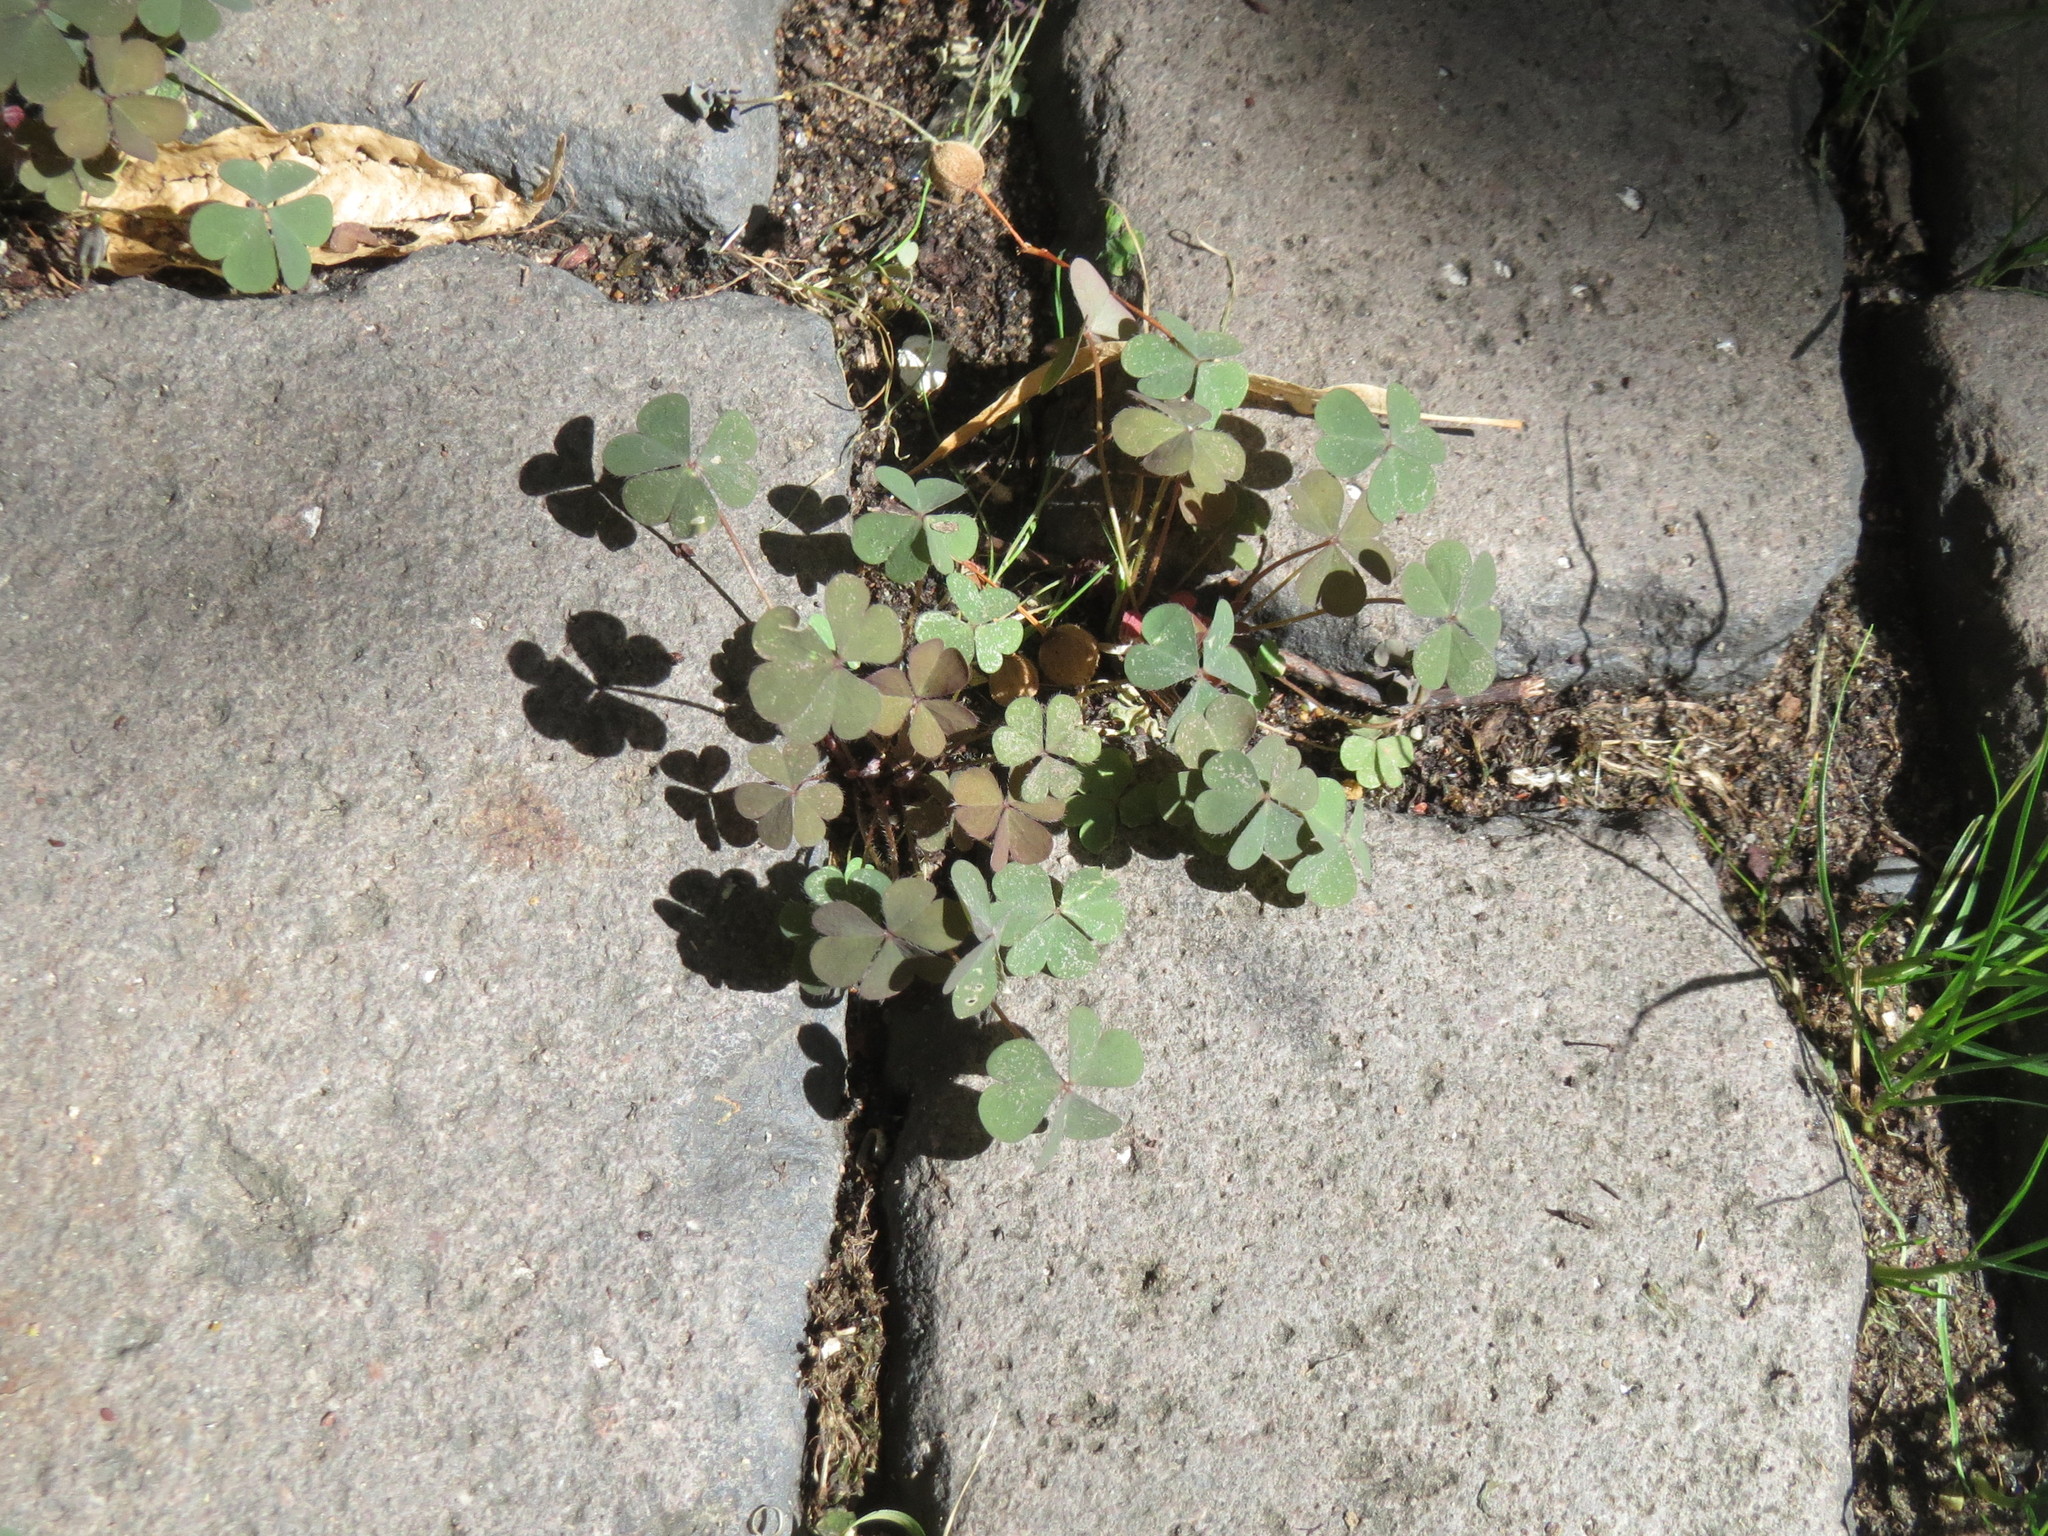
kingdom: Plantae
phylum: Tracheophyta
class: Magnoliopsida
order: Oxalidales
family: Oxalidaceae
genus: Oxalis
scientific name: Oxalis corniculata
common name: Procumbent yellow-sorrel
